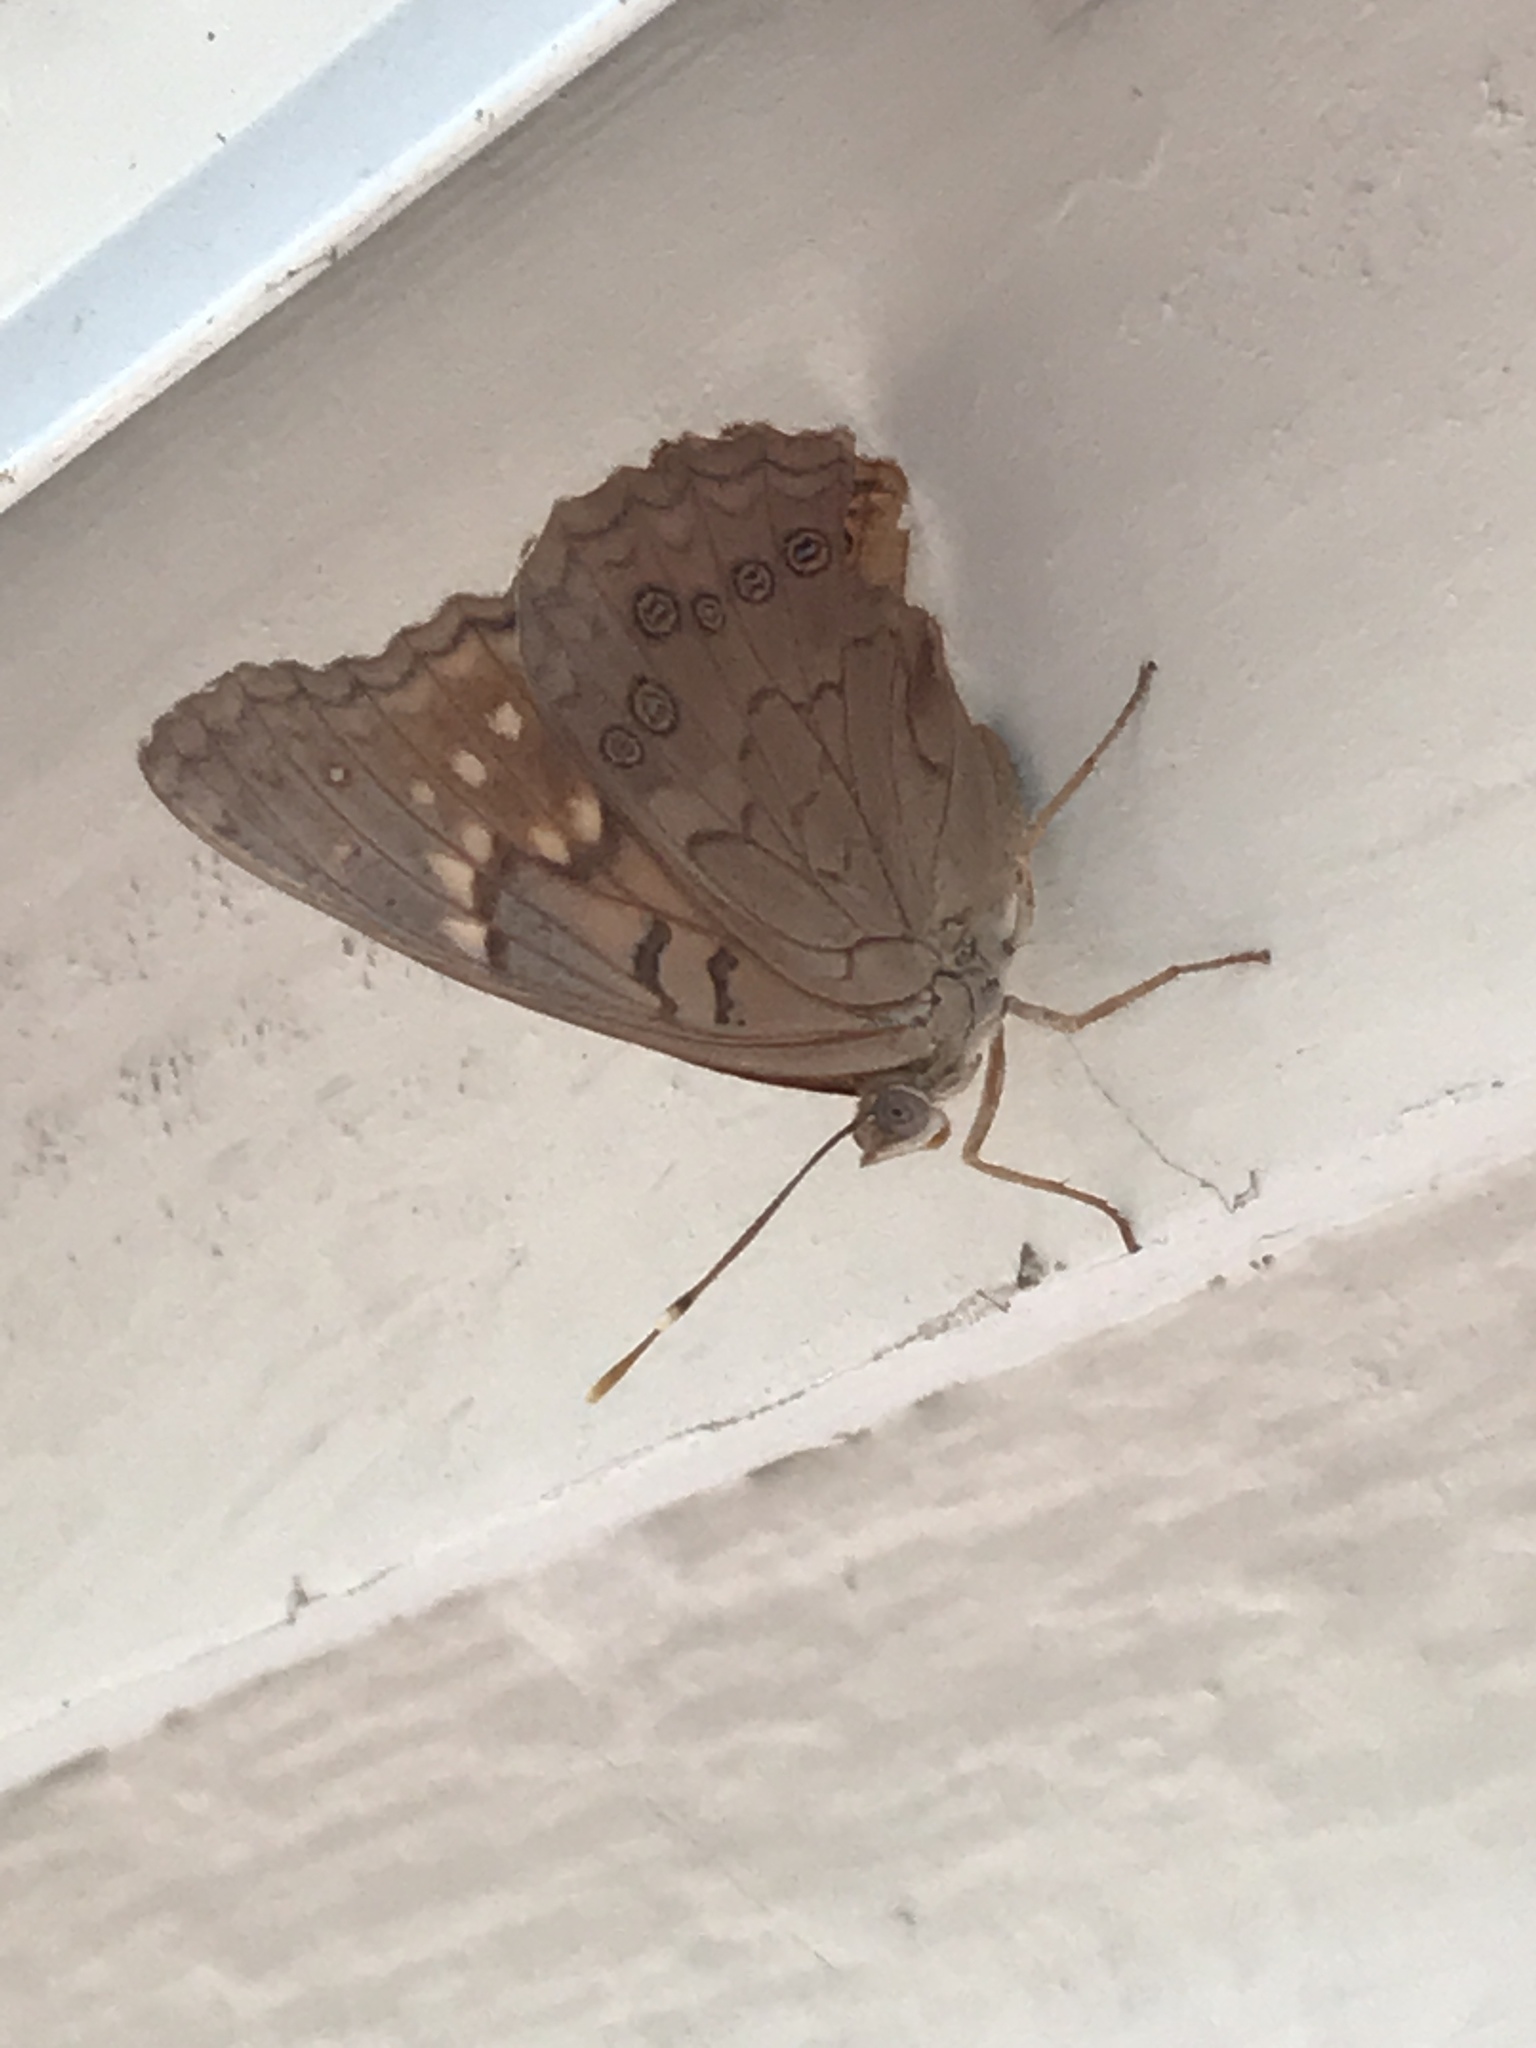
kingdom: Animalia
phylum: Arthropoda
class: Insecta
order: Lepidoptera
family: Nymphalidae
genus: Asterocampa
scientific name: Asterocampa clyton
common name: Tawny emperor
